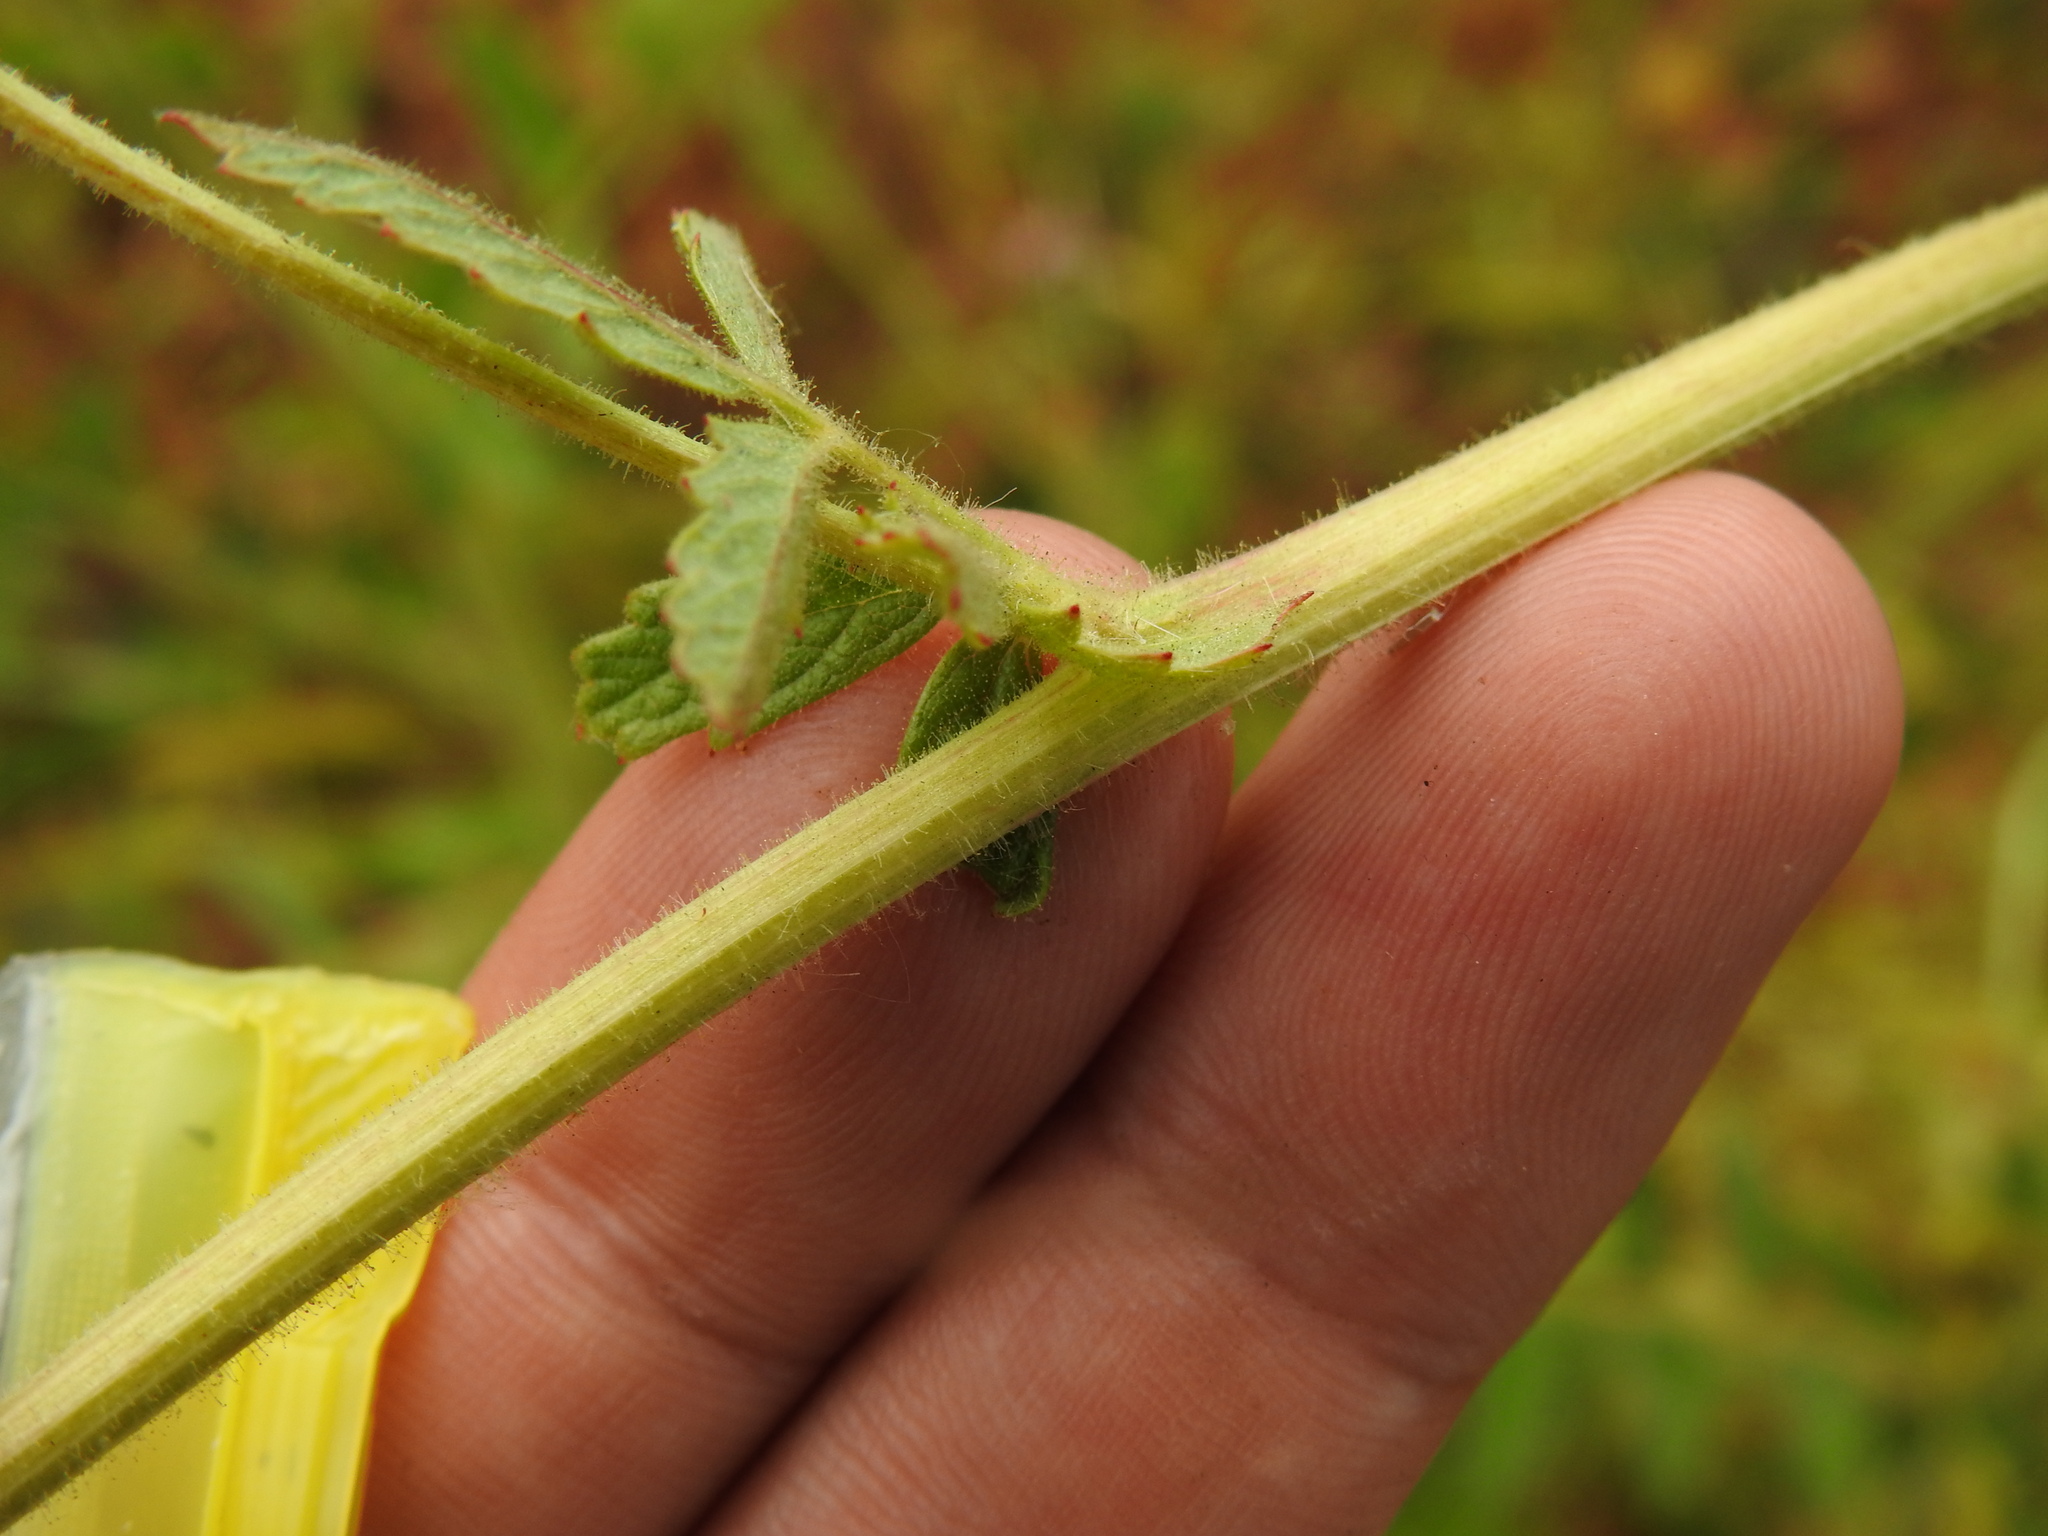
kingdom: Plantae
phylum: Tracheophyta
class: Magnoliopsida
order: Rosales
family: Rosaceae
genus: Sanguisorba
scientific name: Sanguisorba hybrida
